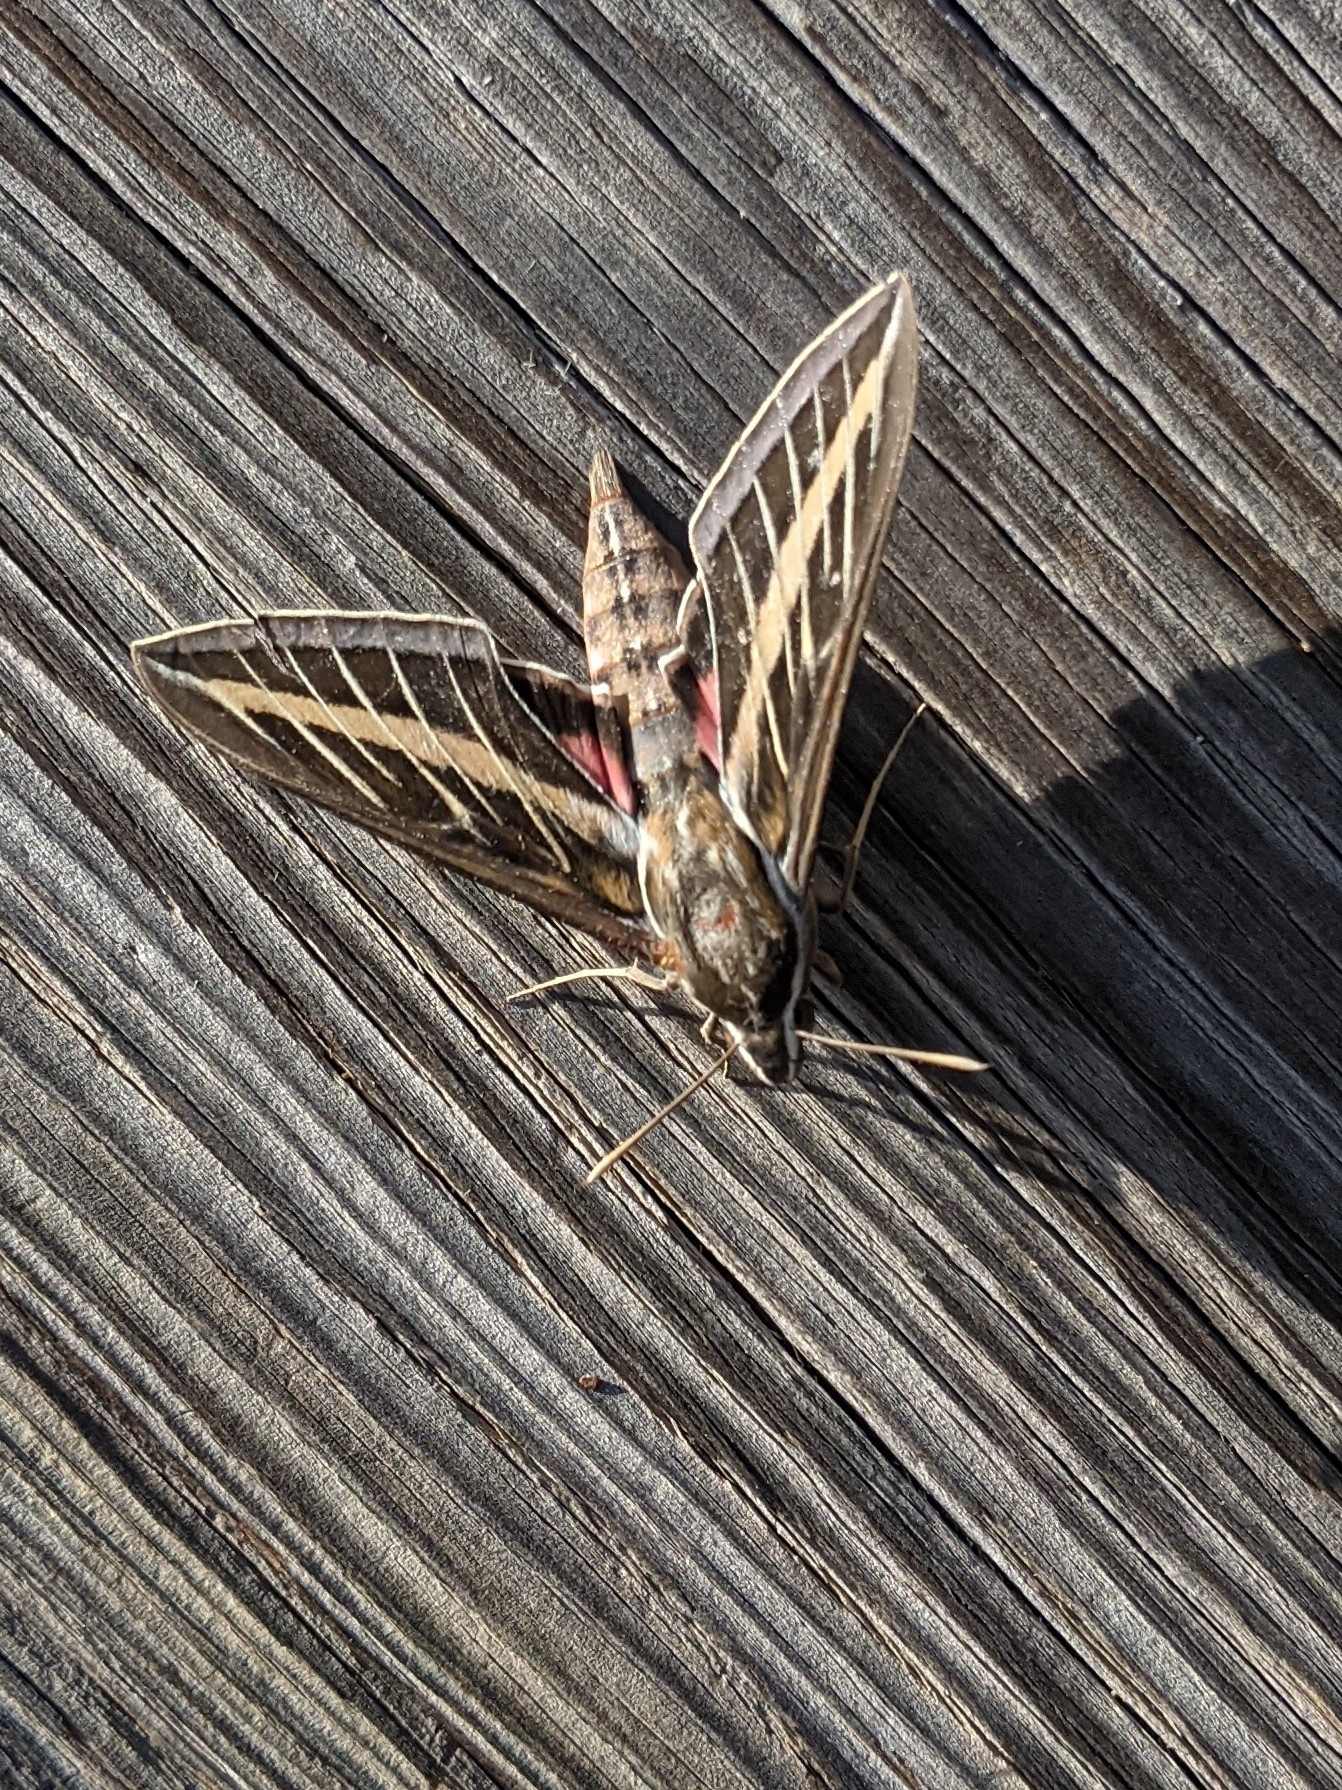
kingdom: Animalia
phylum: Arthropoda
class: Insecta
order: Lepidoptera
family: Sphingidae
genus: Hyles
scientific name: Hyles lineata
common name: White-lined sphinx
